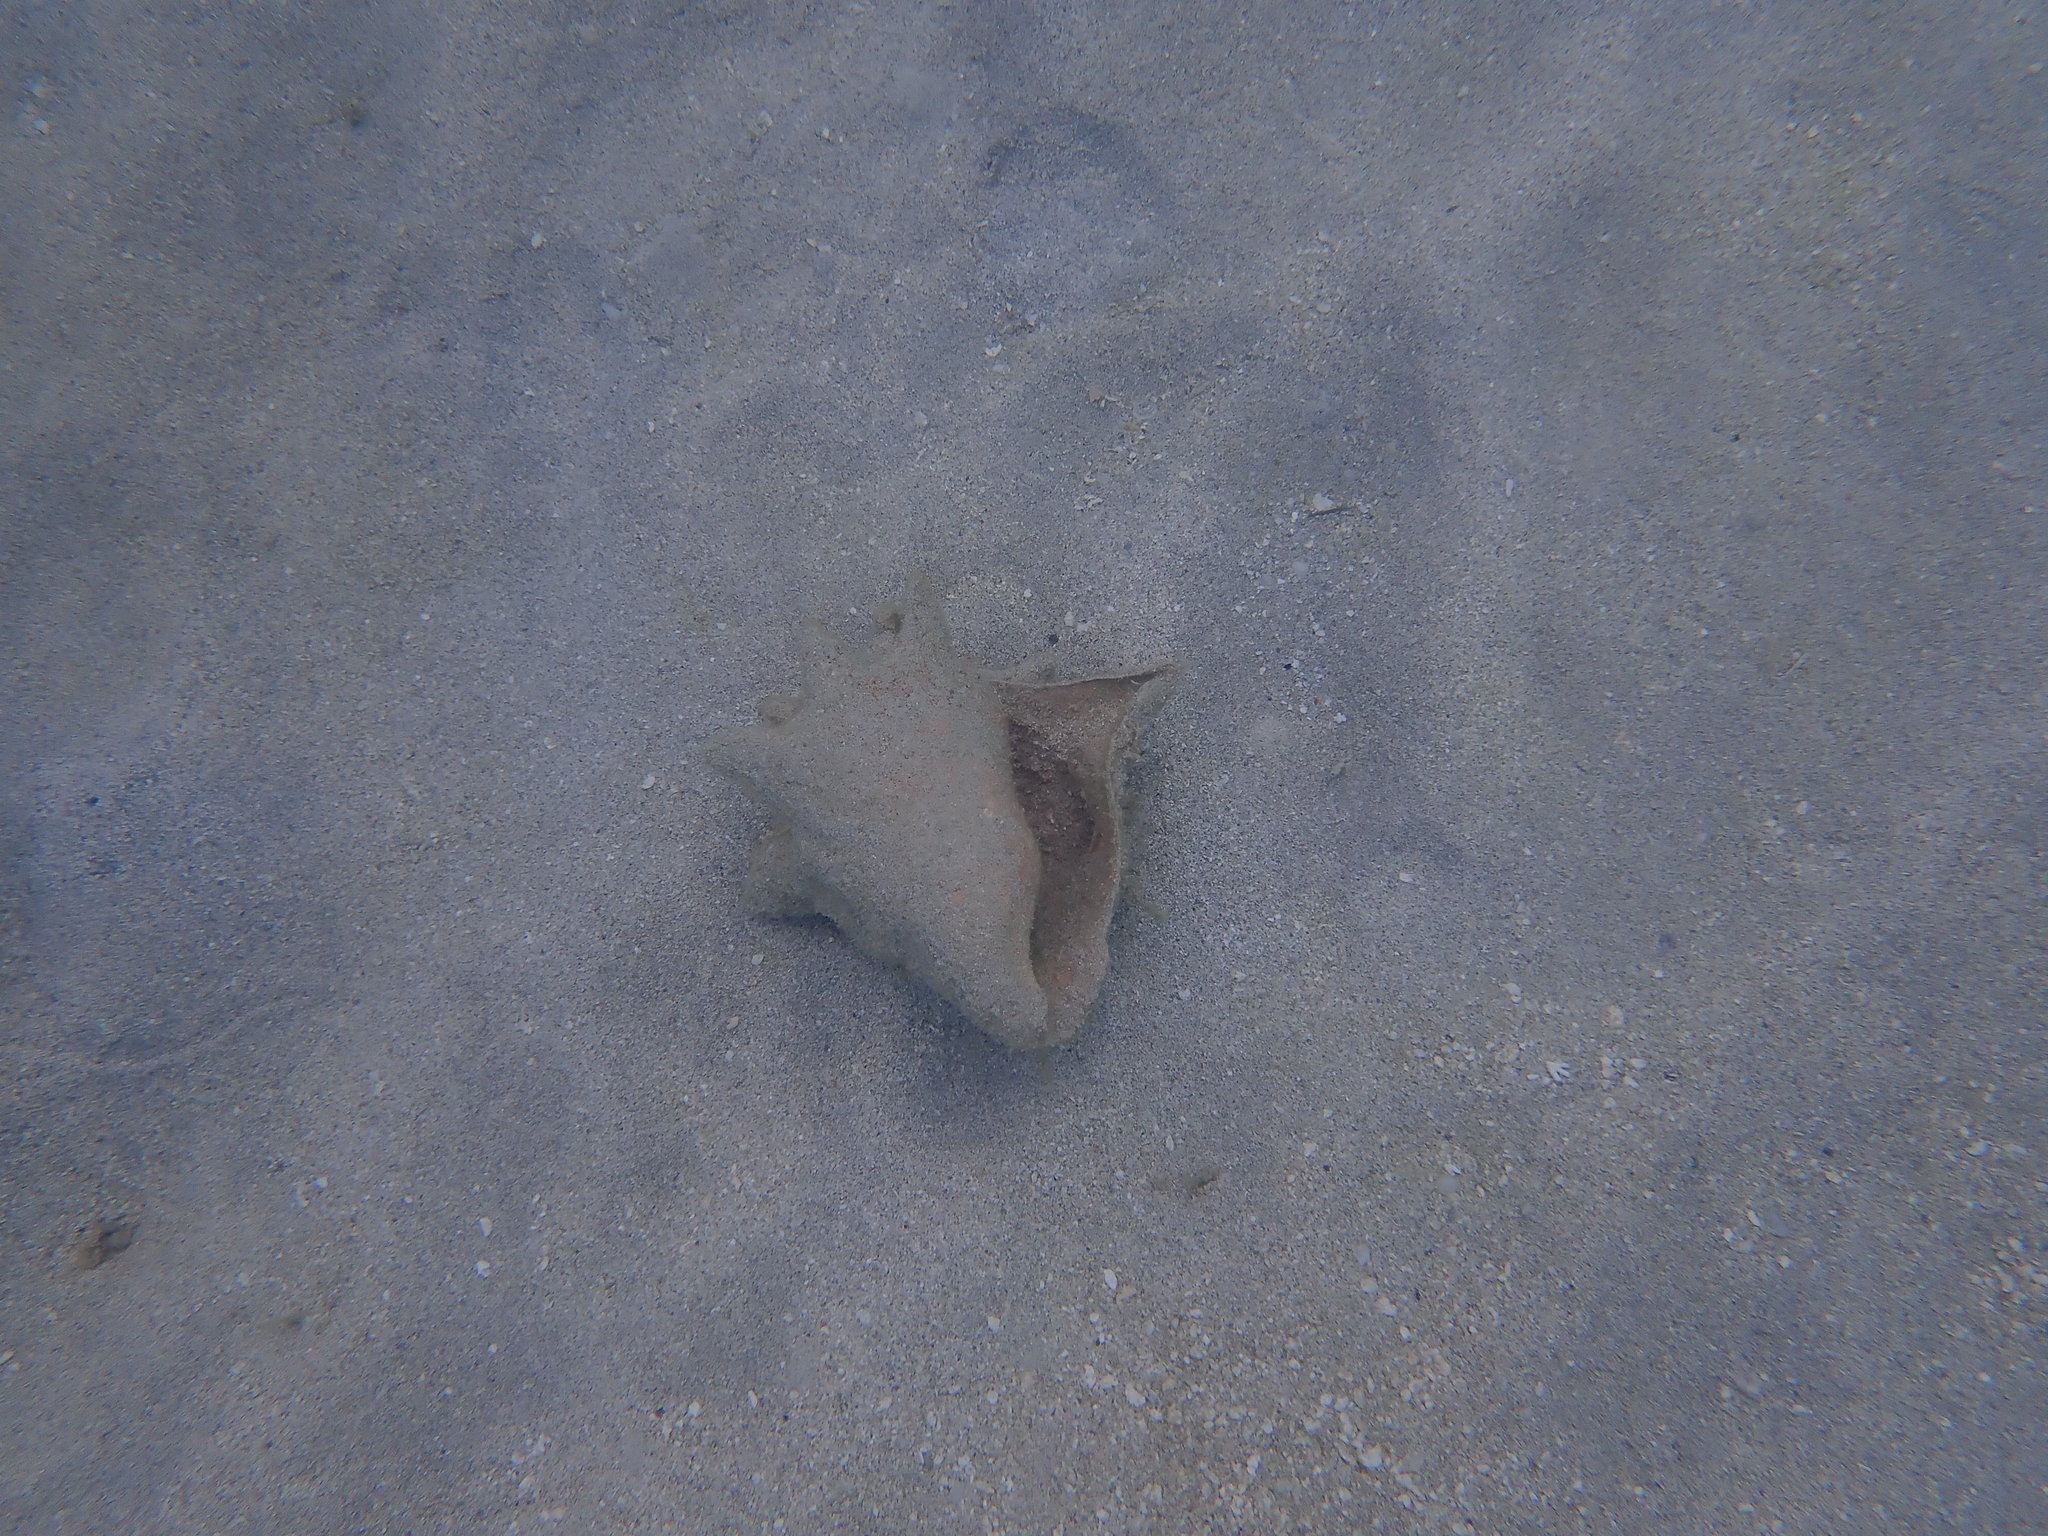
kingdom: Animalia
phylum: Mollusca
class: Gastropoda
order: Littorinimorpha
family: Strombidae
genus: Aliger
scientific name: Aliger gigas
